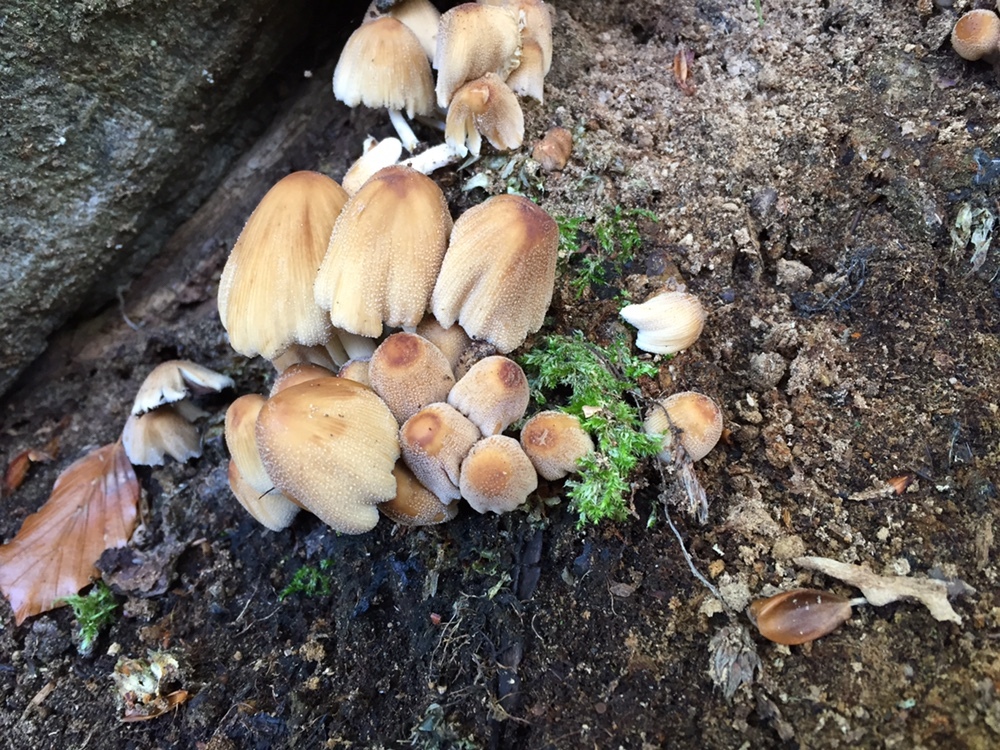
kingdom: Fungi
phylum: Basidiomycota
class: Agaricomycetes
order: Agaricales
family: Psathyrellaceae
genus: Coprinellus
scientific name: Coprinellus micaceus
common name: Glistening ink-cap
